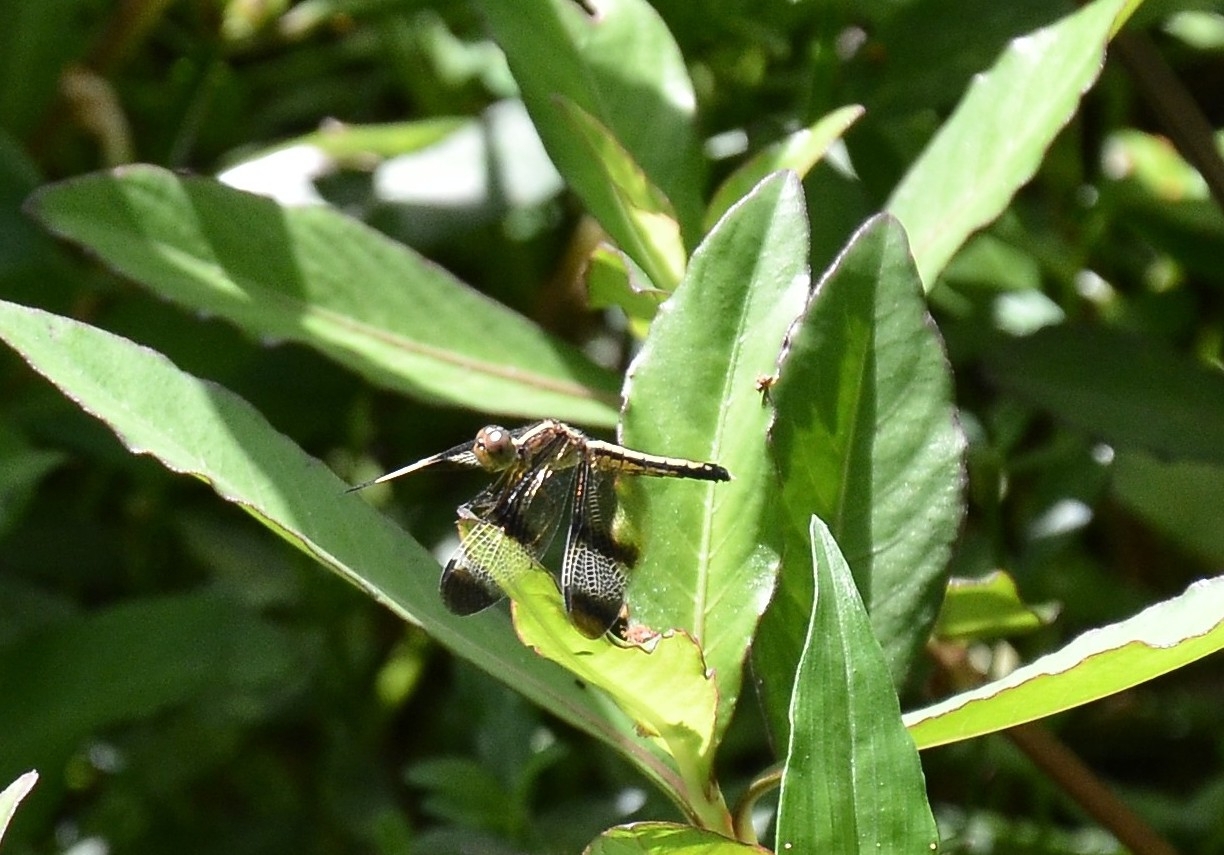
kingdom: Animalia
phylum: Arthropoda
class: Insecta
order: Odonata
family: Libellulidae
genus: Neurothemis
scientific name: Neurothemis tullia
